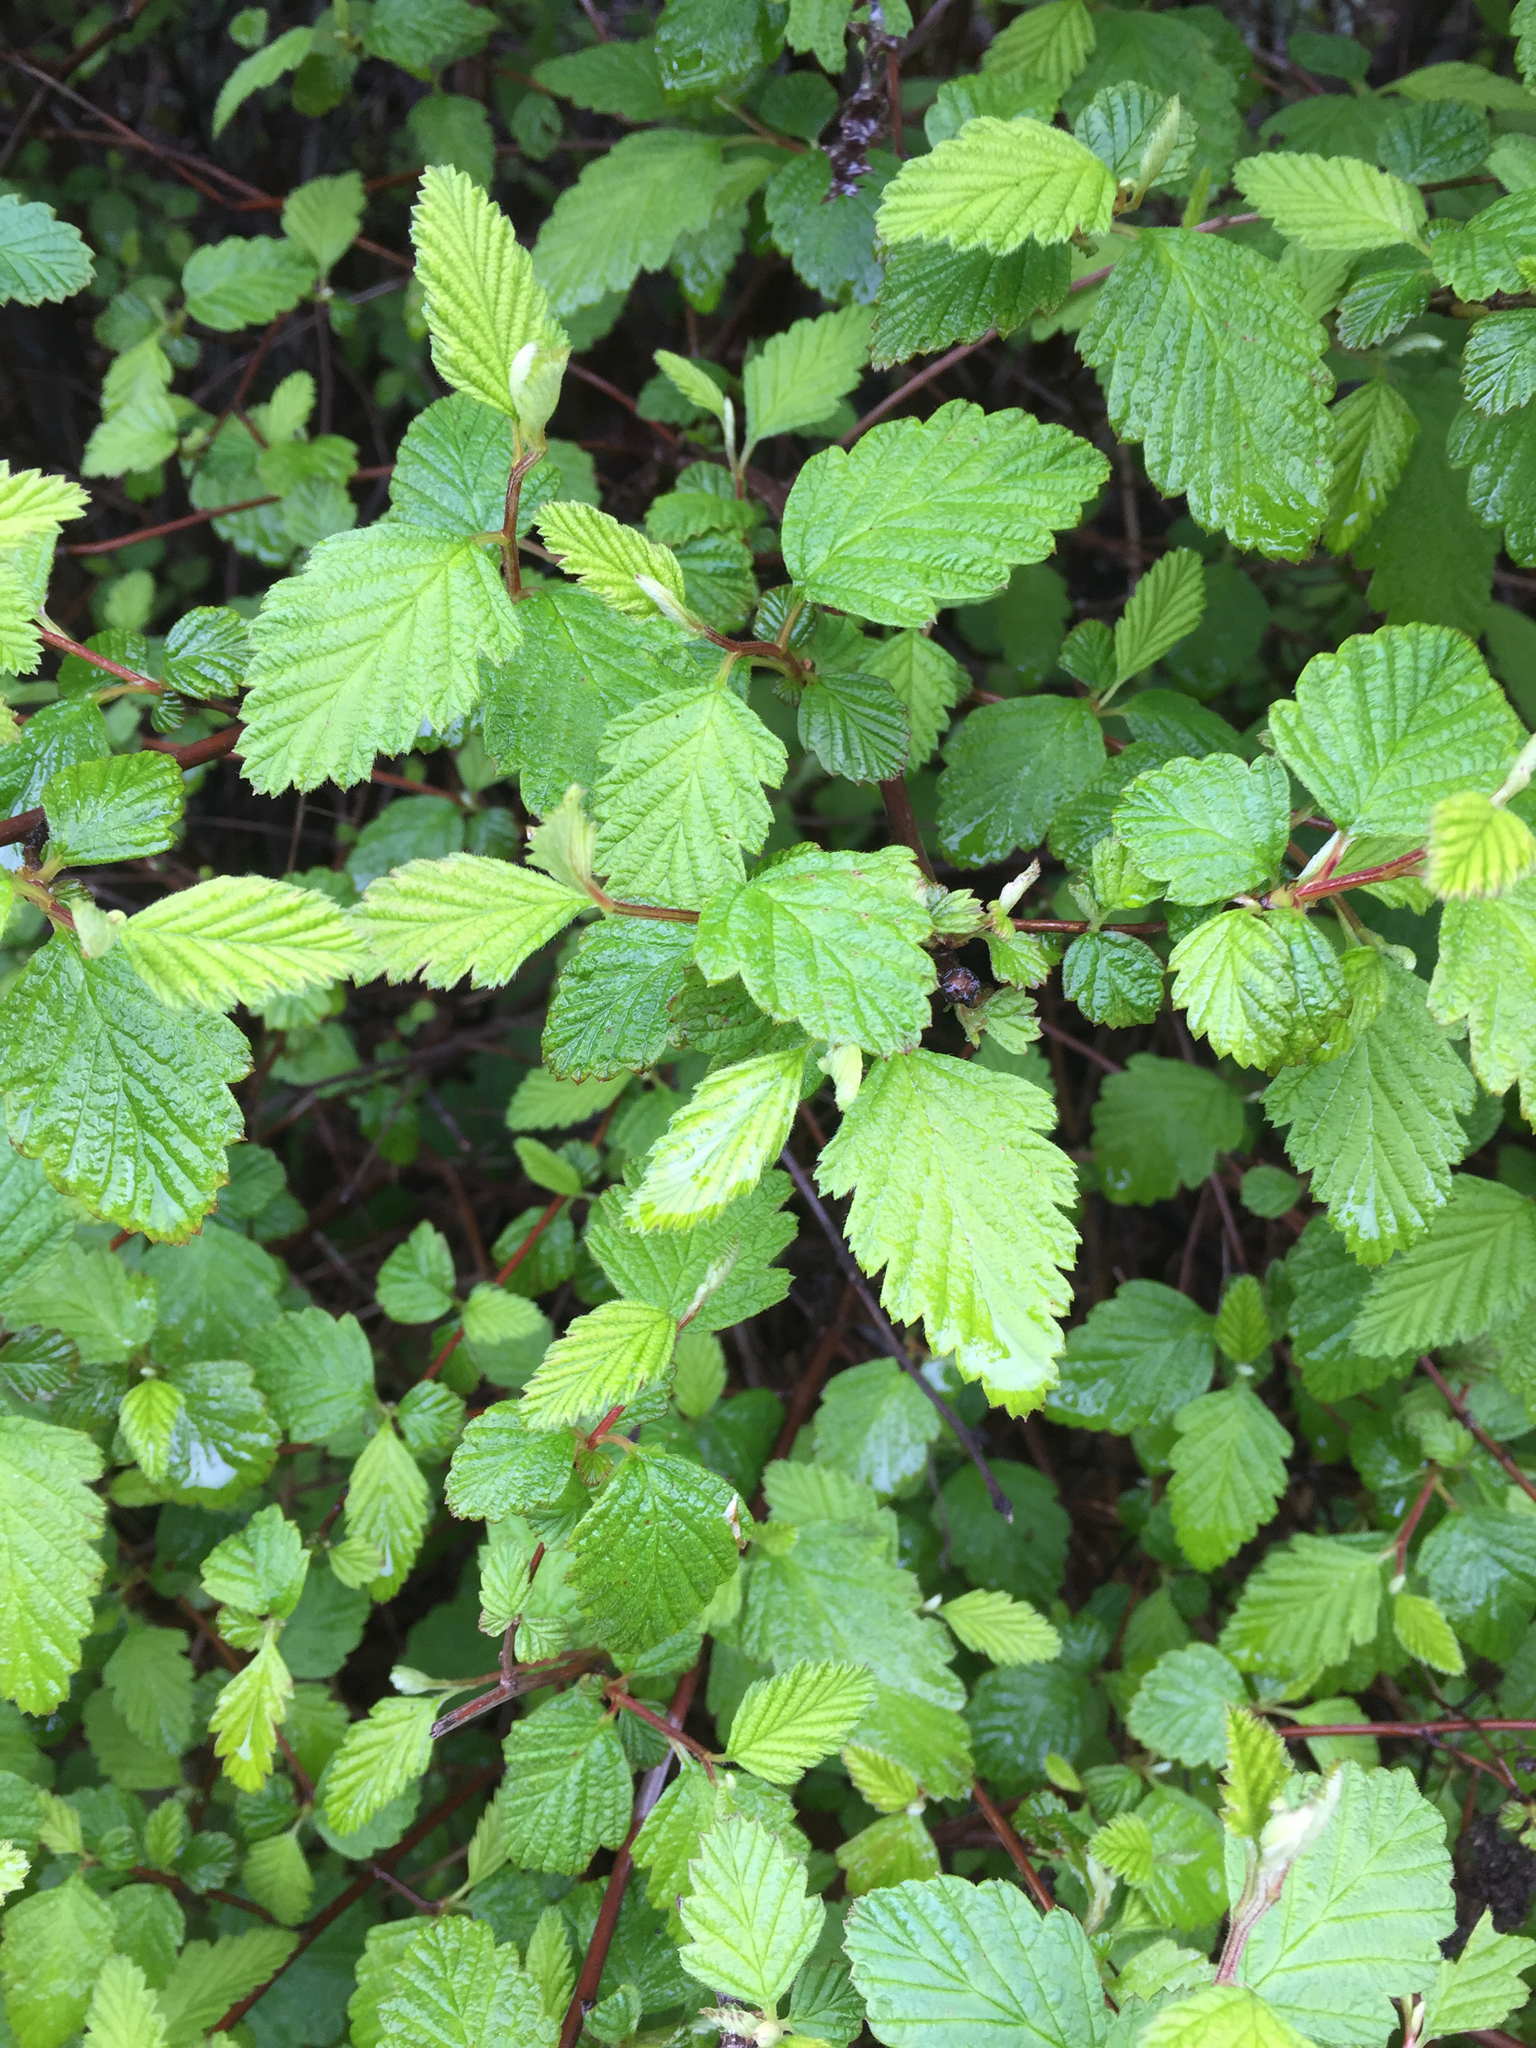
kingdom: Plantae
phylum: Tracheophyta
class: Magnoliopsida
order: Rosales
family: Rosaceae
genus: Holodiscus
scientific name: Holodiscus discolor
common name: Oceanspray
